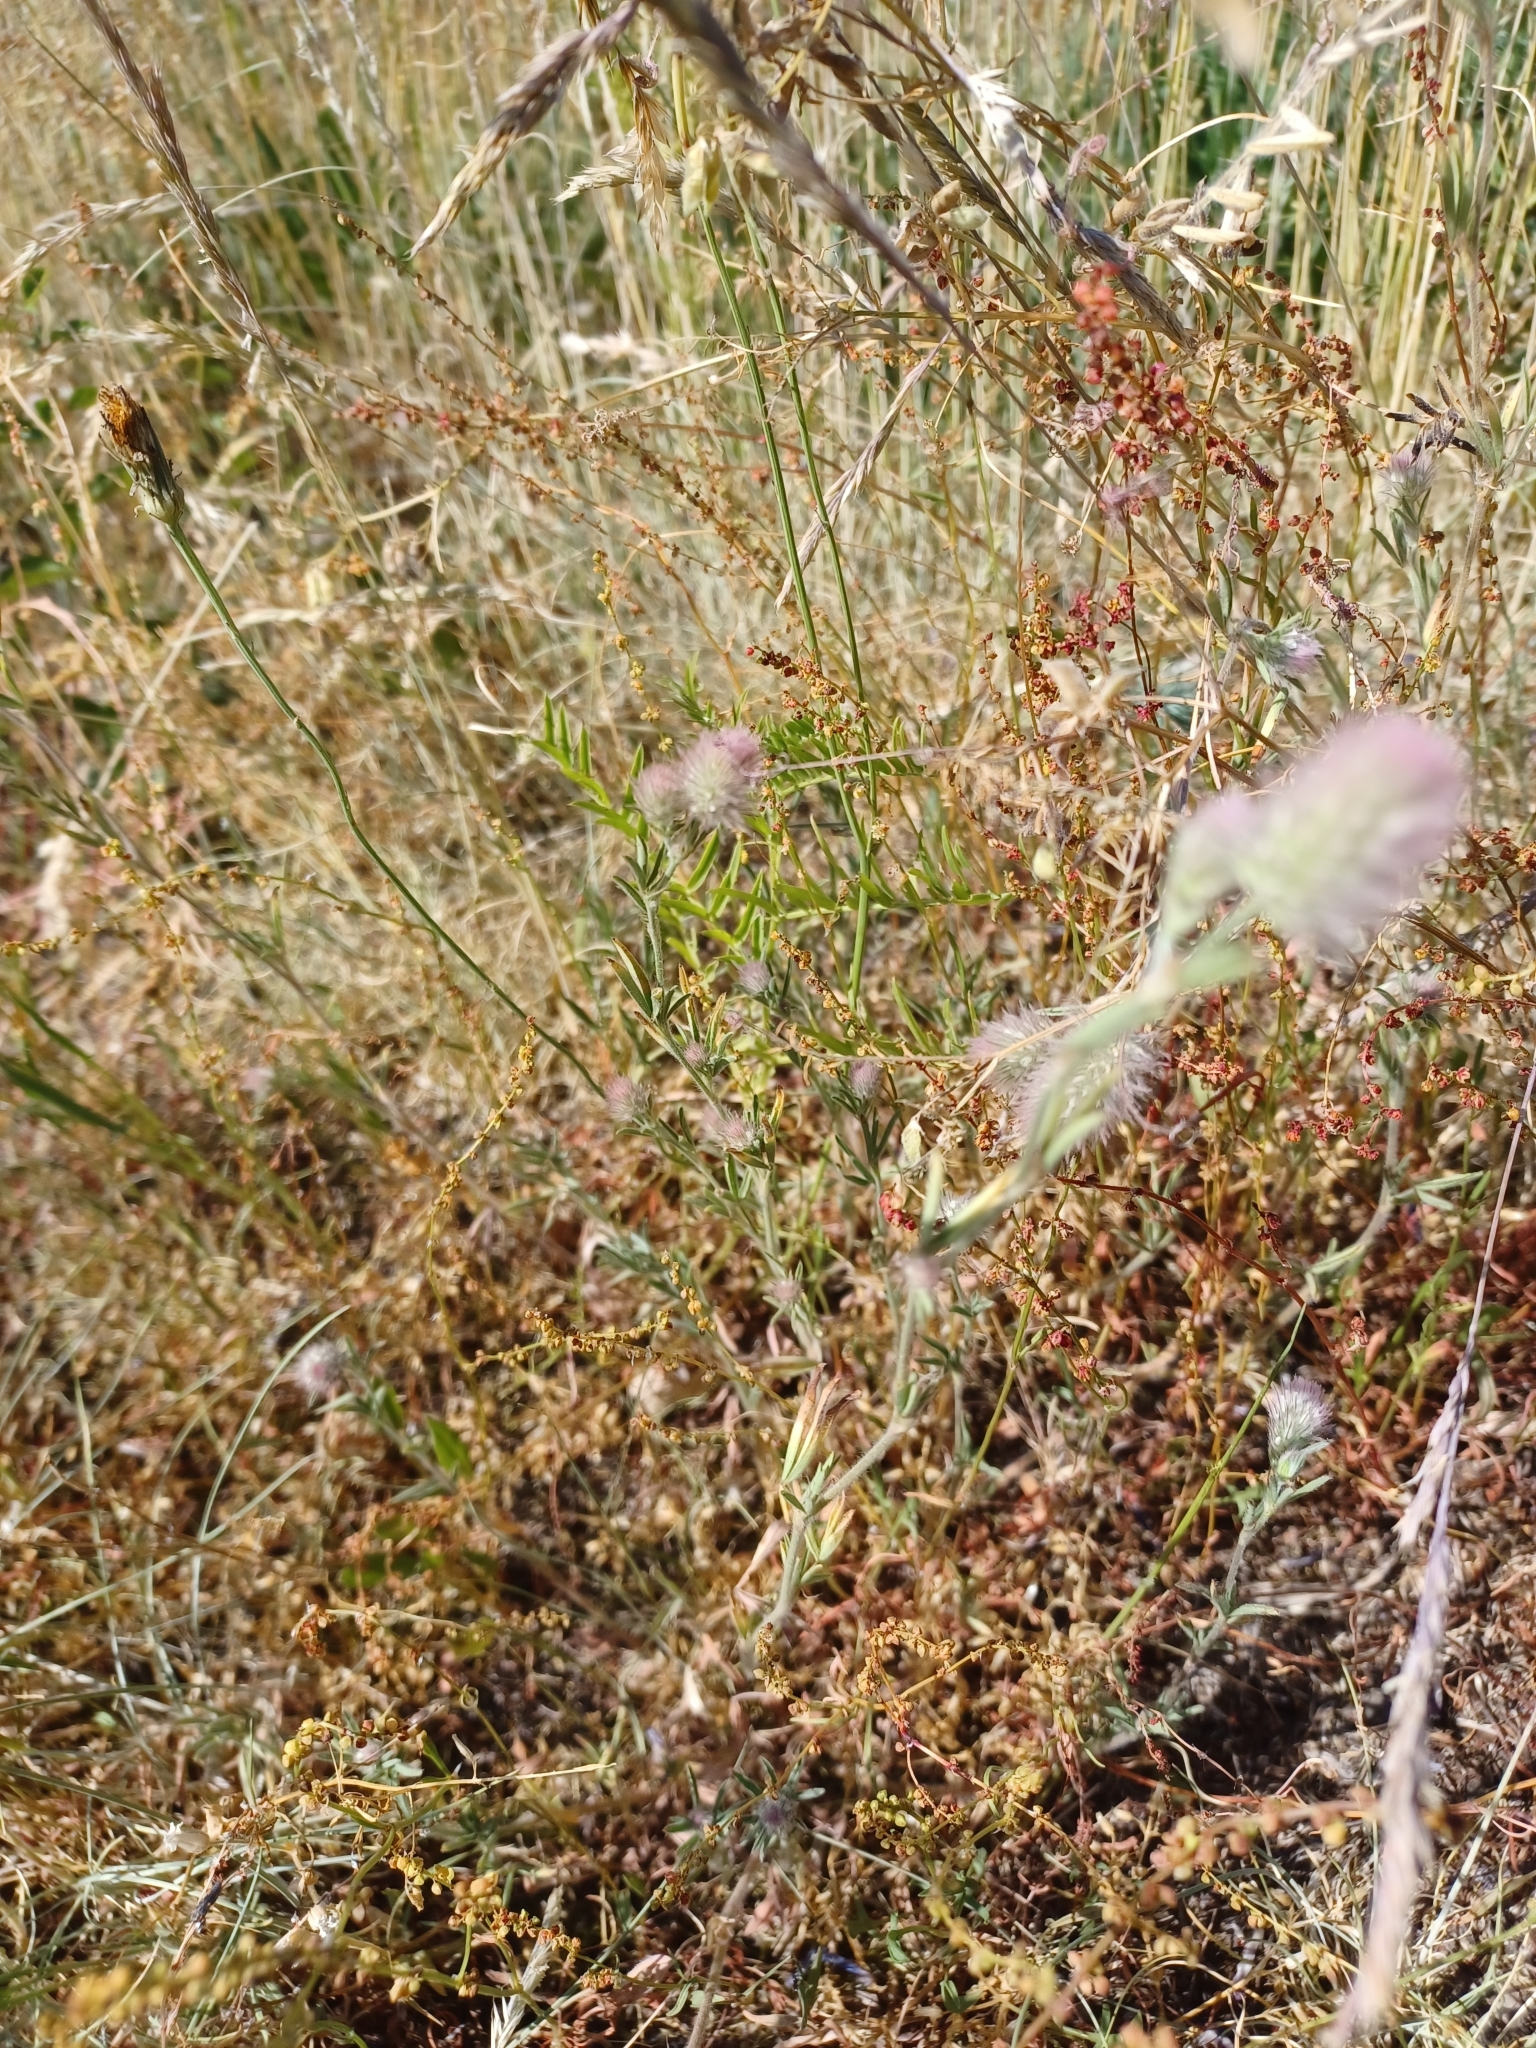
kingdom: Plantae
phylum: Tracheophyta
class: Magnoliopsida
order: Fabales
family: Fabaceae
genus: Trifolium
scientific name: Trifolium arvense
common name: Hare's-foot clover
